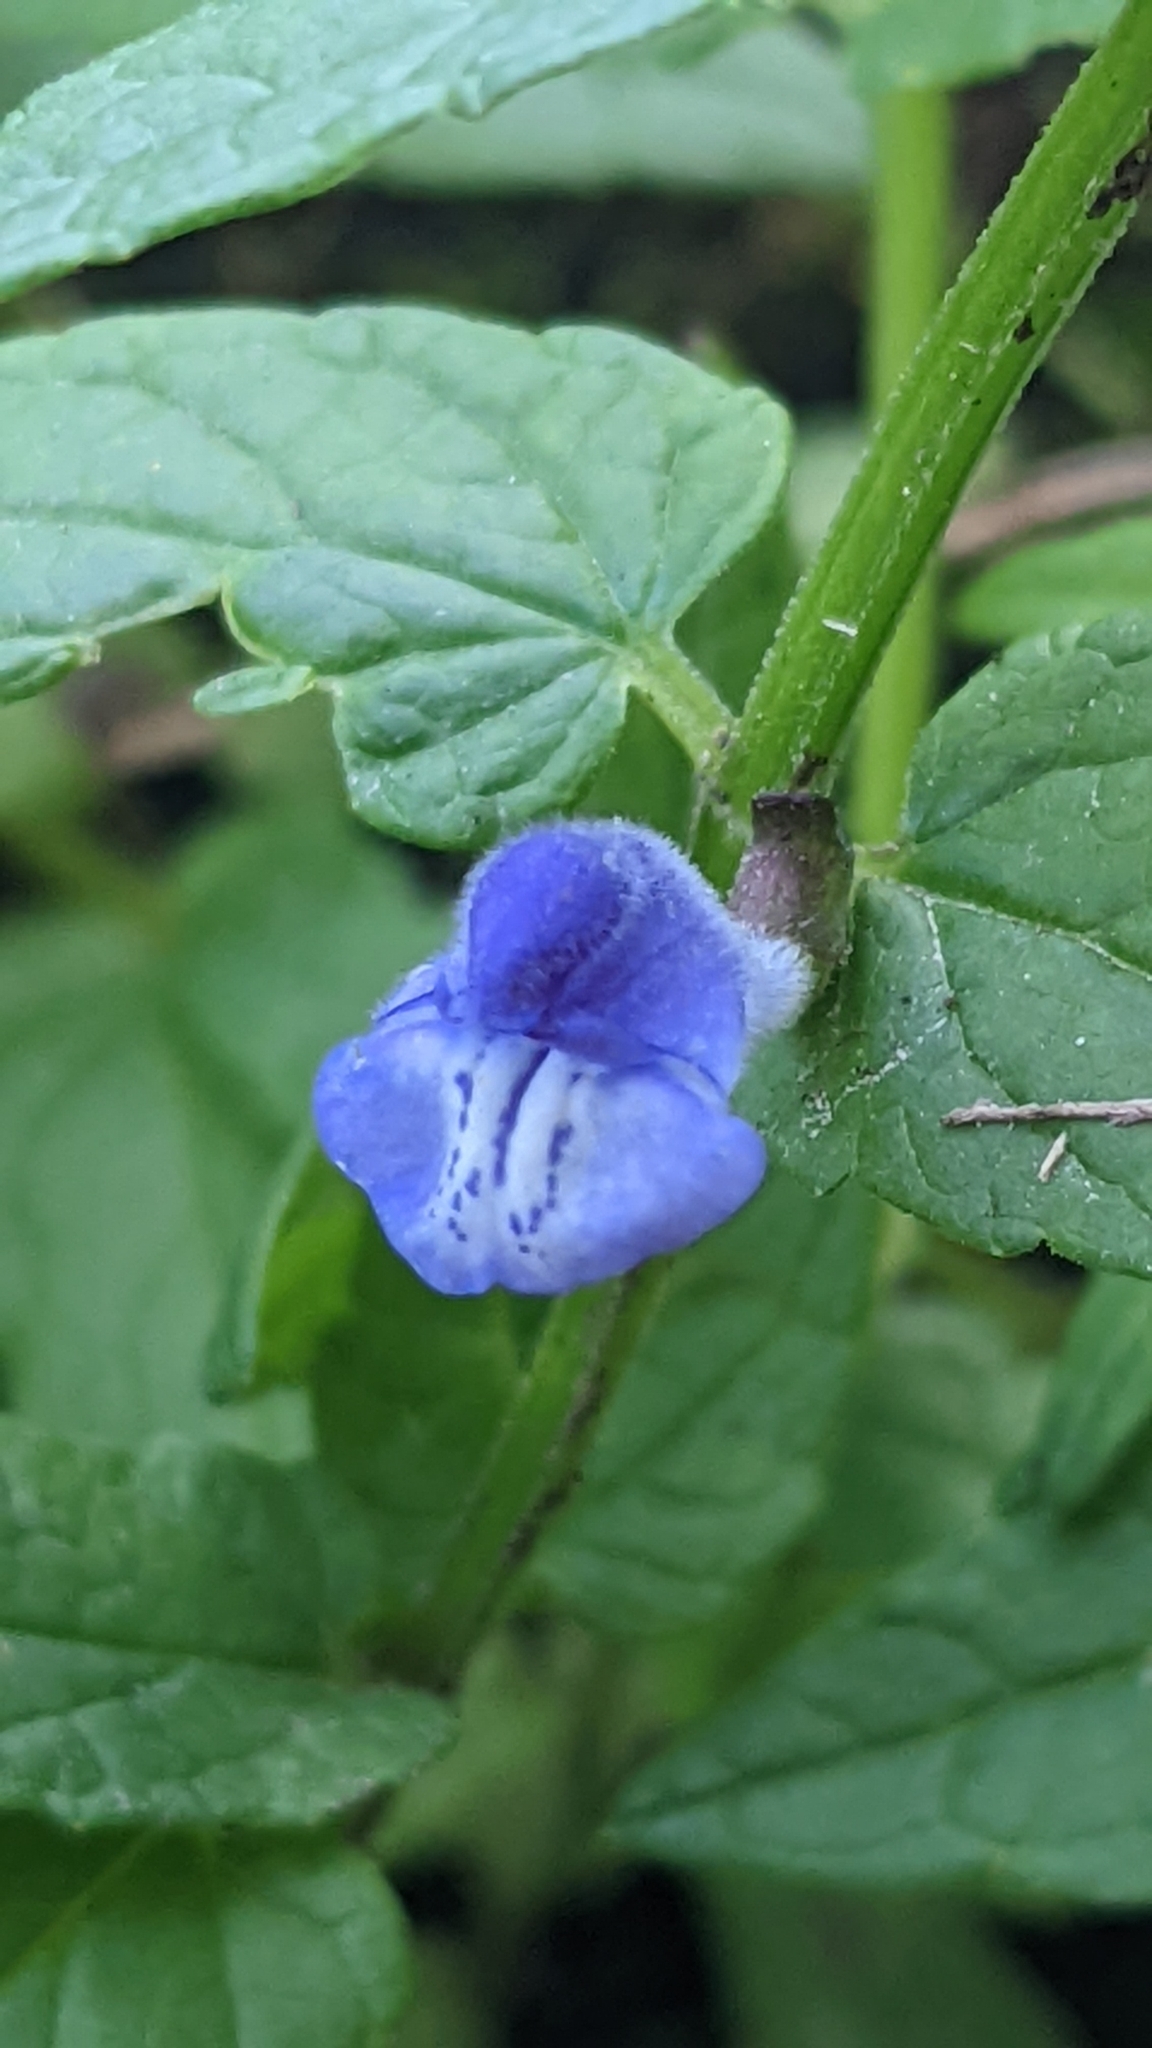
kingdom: Plantae
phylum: Tracheophyta
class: Magnoliopsida
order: Lamiales
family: Lamiaceae
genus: Scutellaria
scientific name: Scutellaria galericulata
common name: Skullcap
